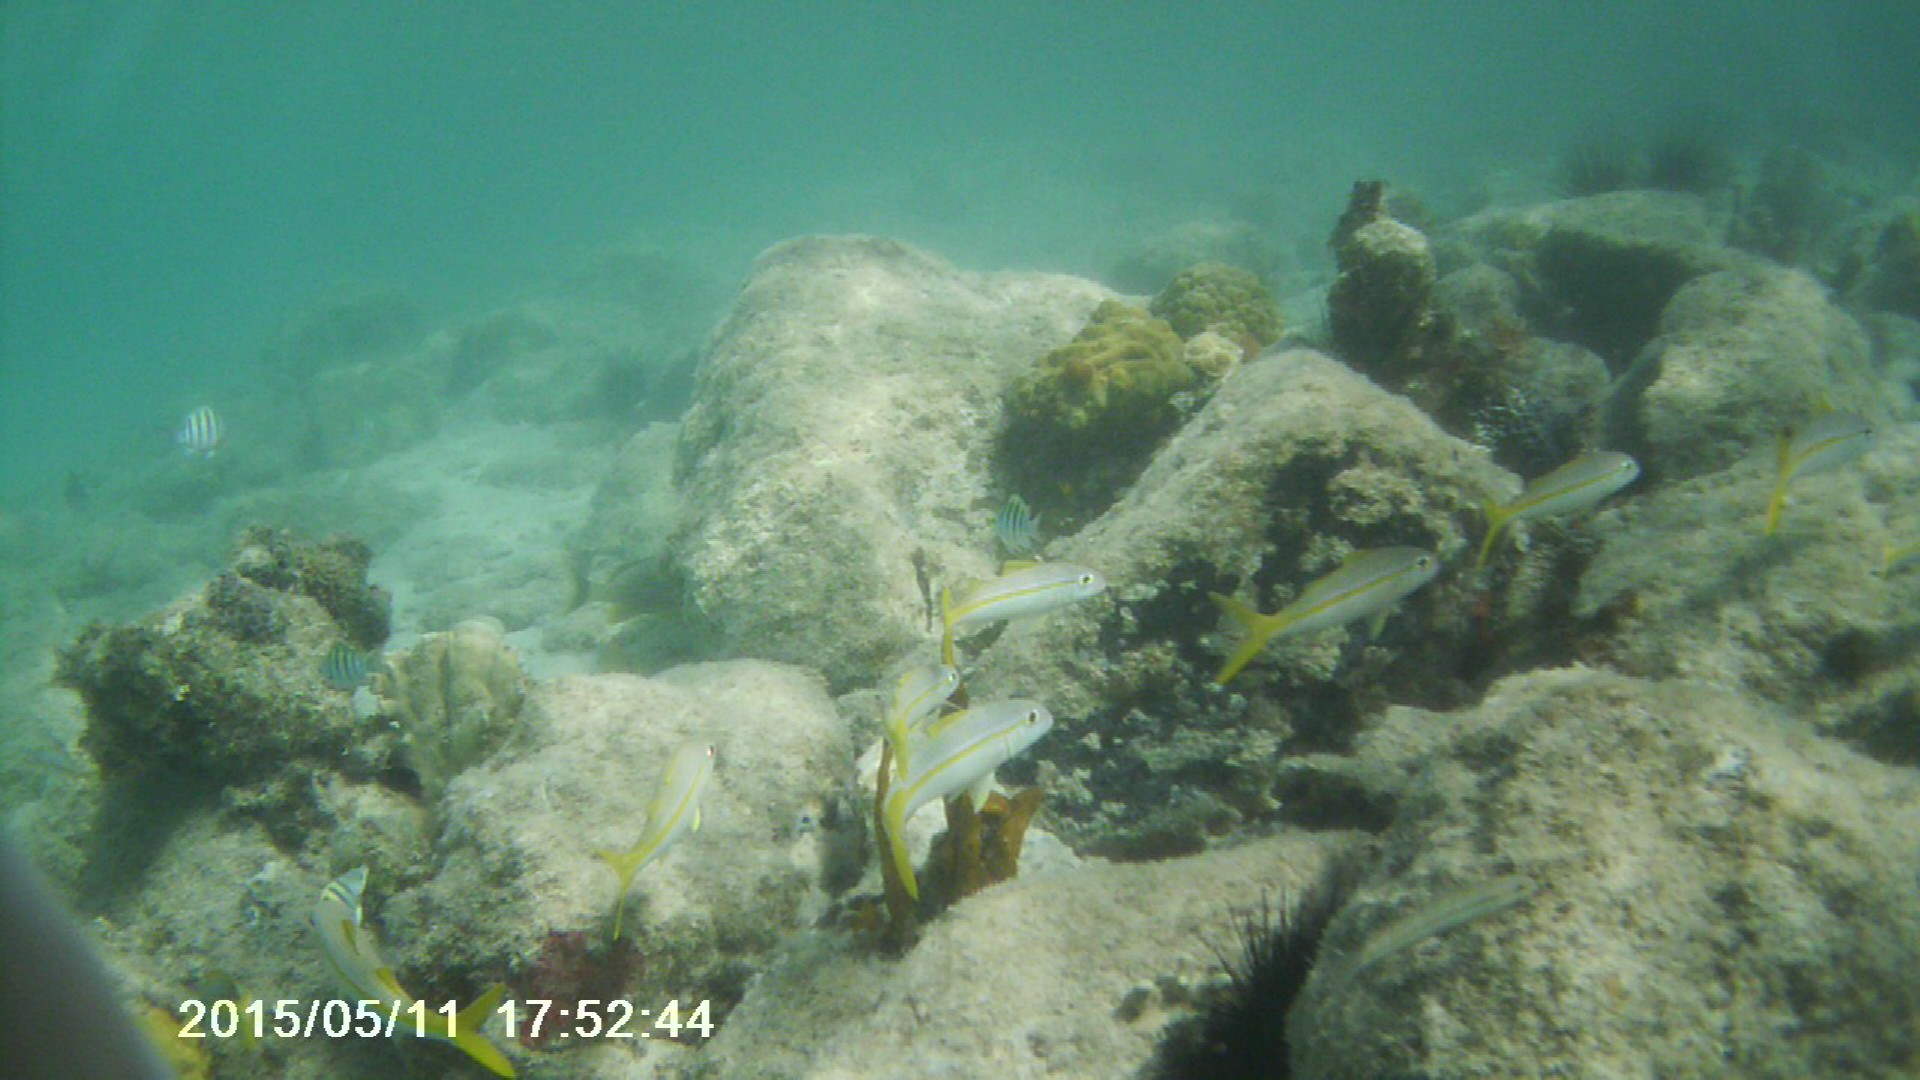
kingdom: Animalia
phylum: Chordata
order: Perciformes
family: Pomacentridae
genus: Abudefduf
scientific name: Abudefduf saxatilis
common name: Sergeant major
